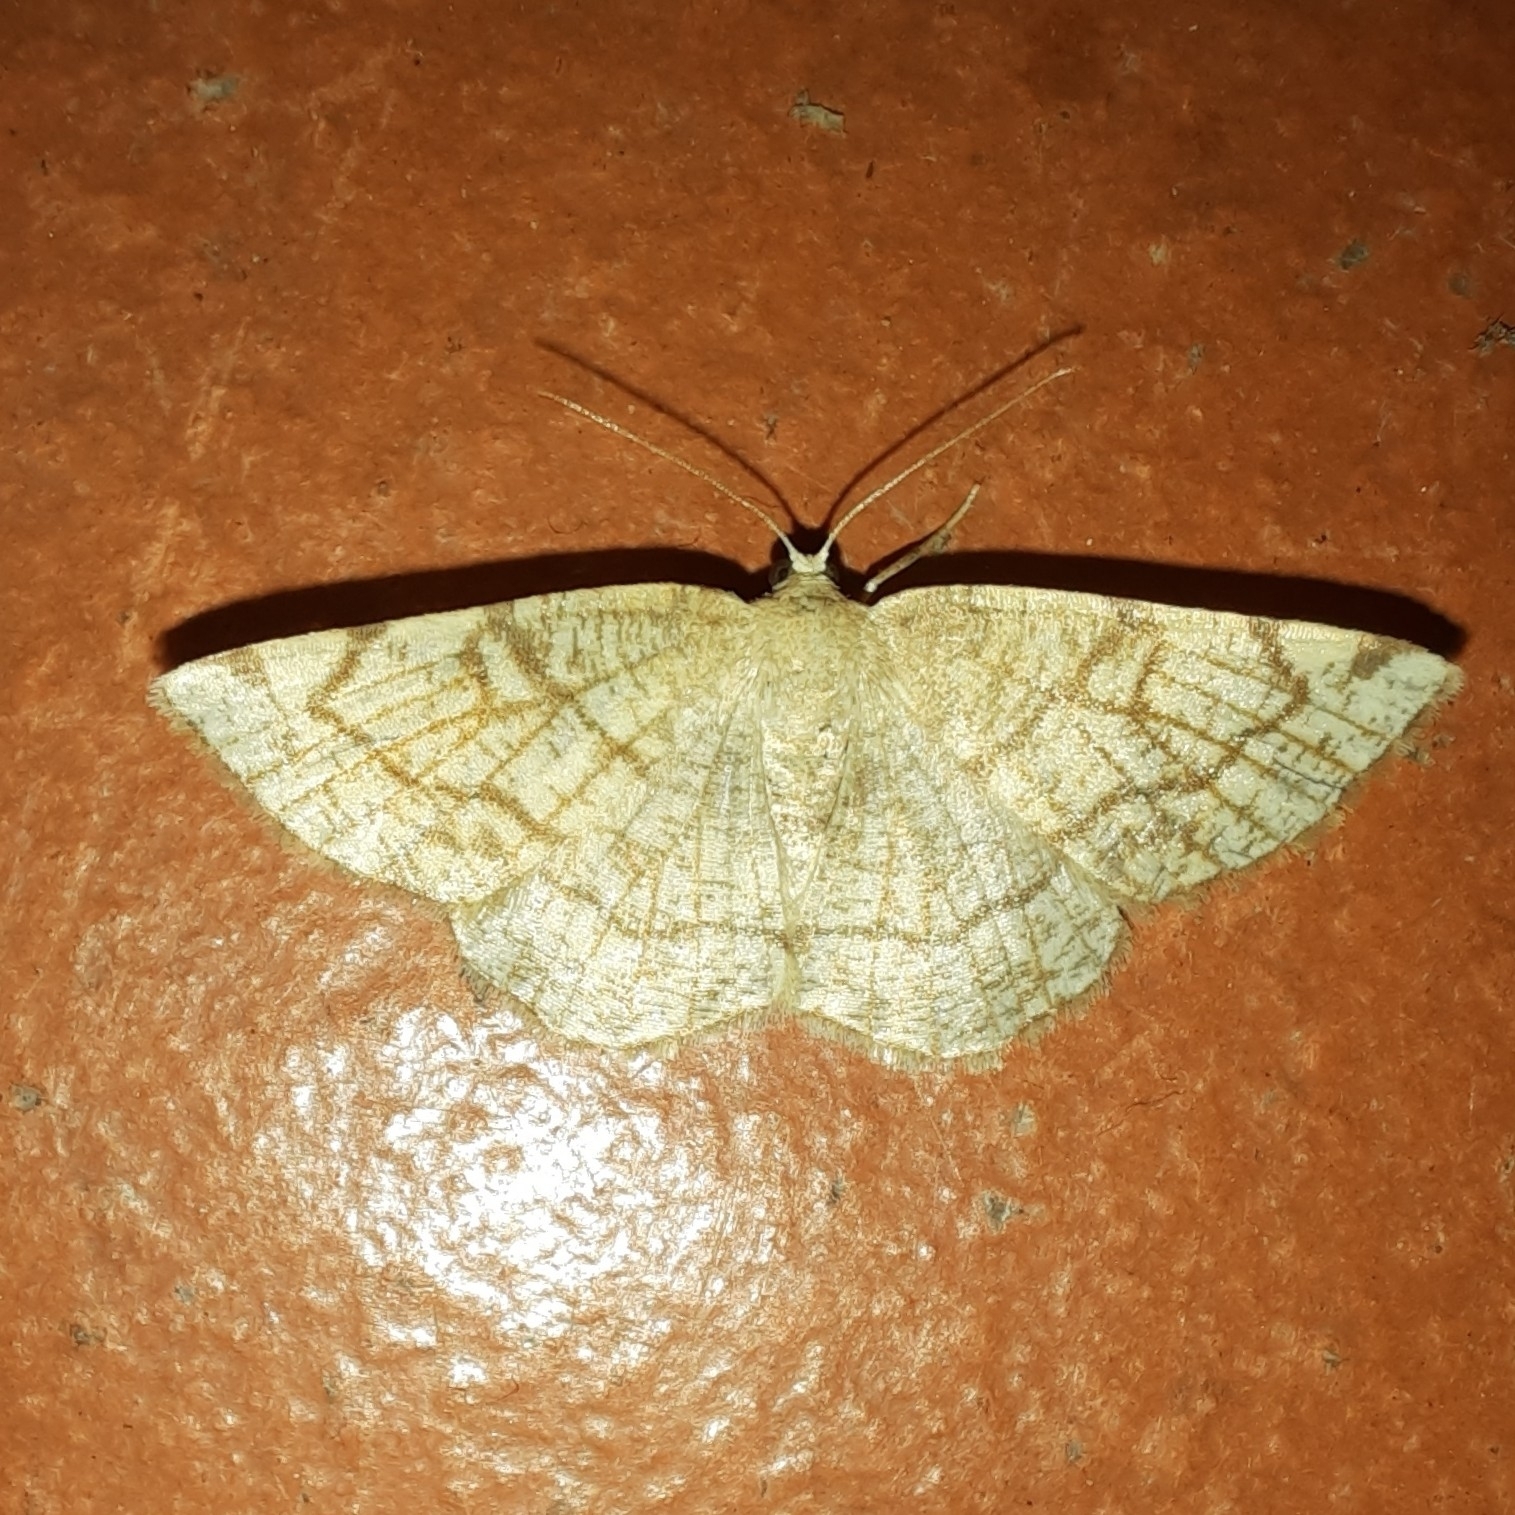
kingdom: Animalia
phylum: Arthropoda
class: Insecta
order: Lepidoptera
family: Geometridae
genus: Stegania
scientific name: Stegania trimaculata
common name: Dorset cream wave
